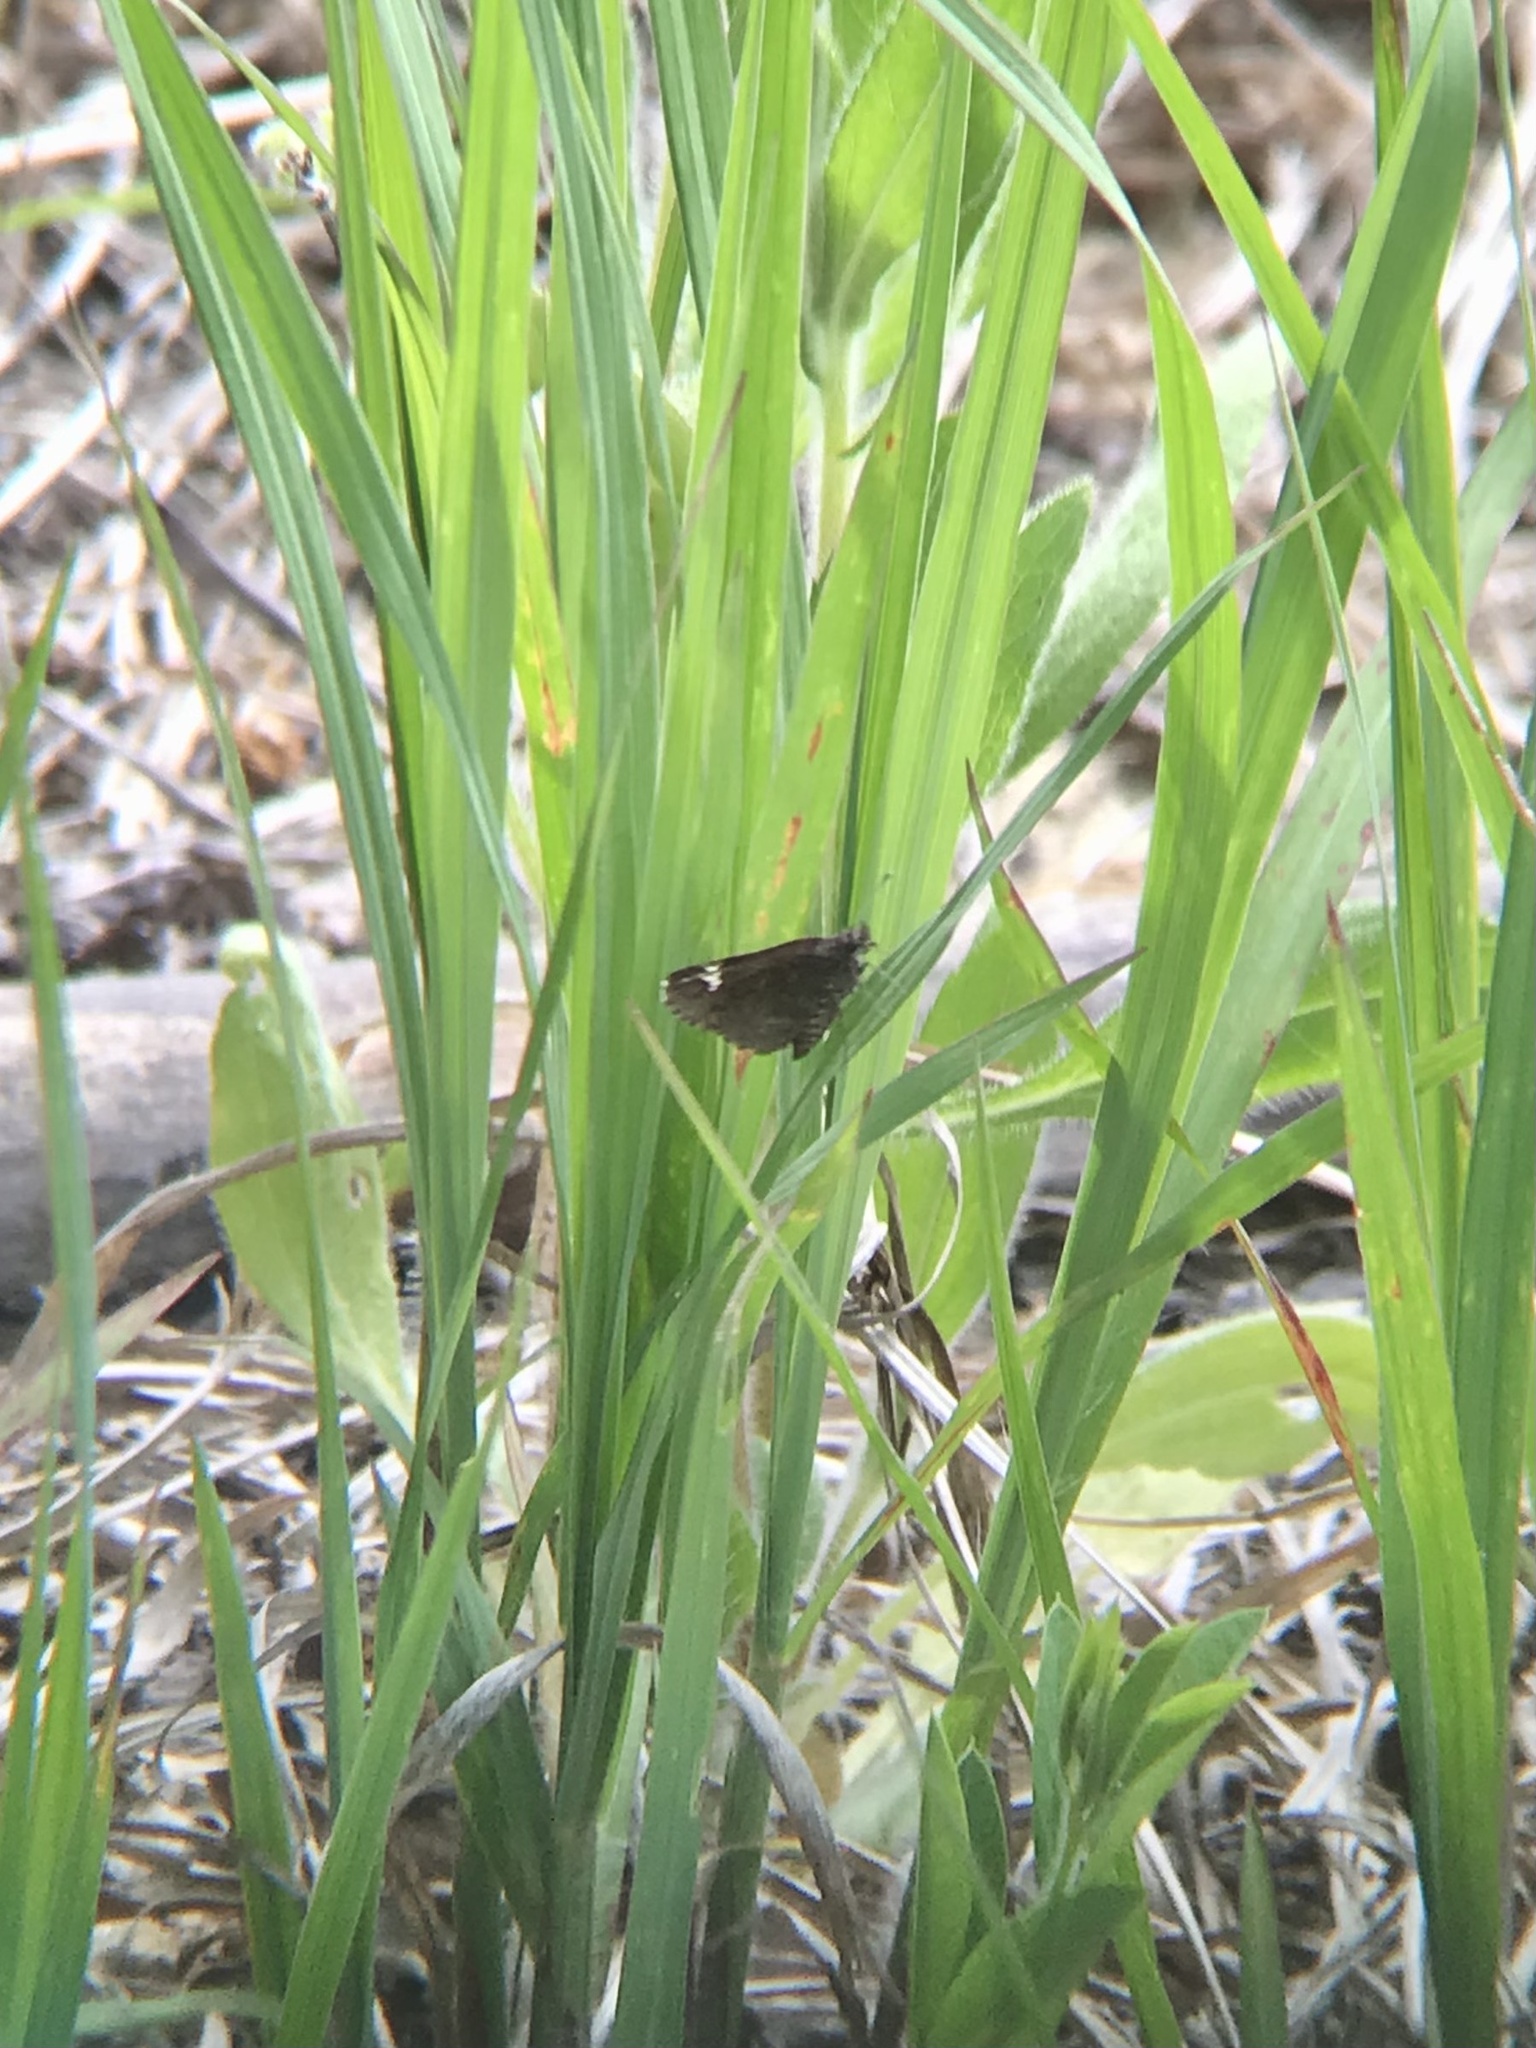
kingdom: Animalia
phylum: Arthropoda
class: Insecta
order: Lepidoptera
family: Hesperiidae
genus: Mastor
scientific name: Mastor vialis
